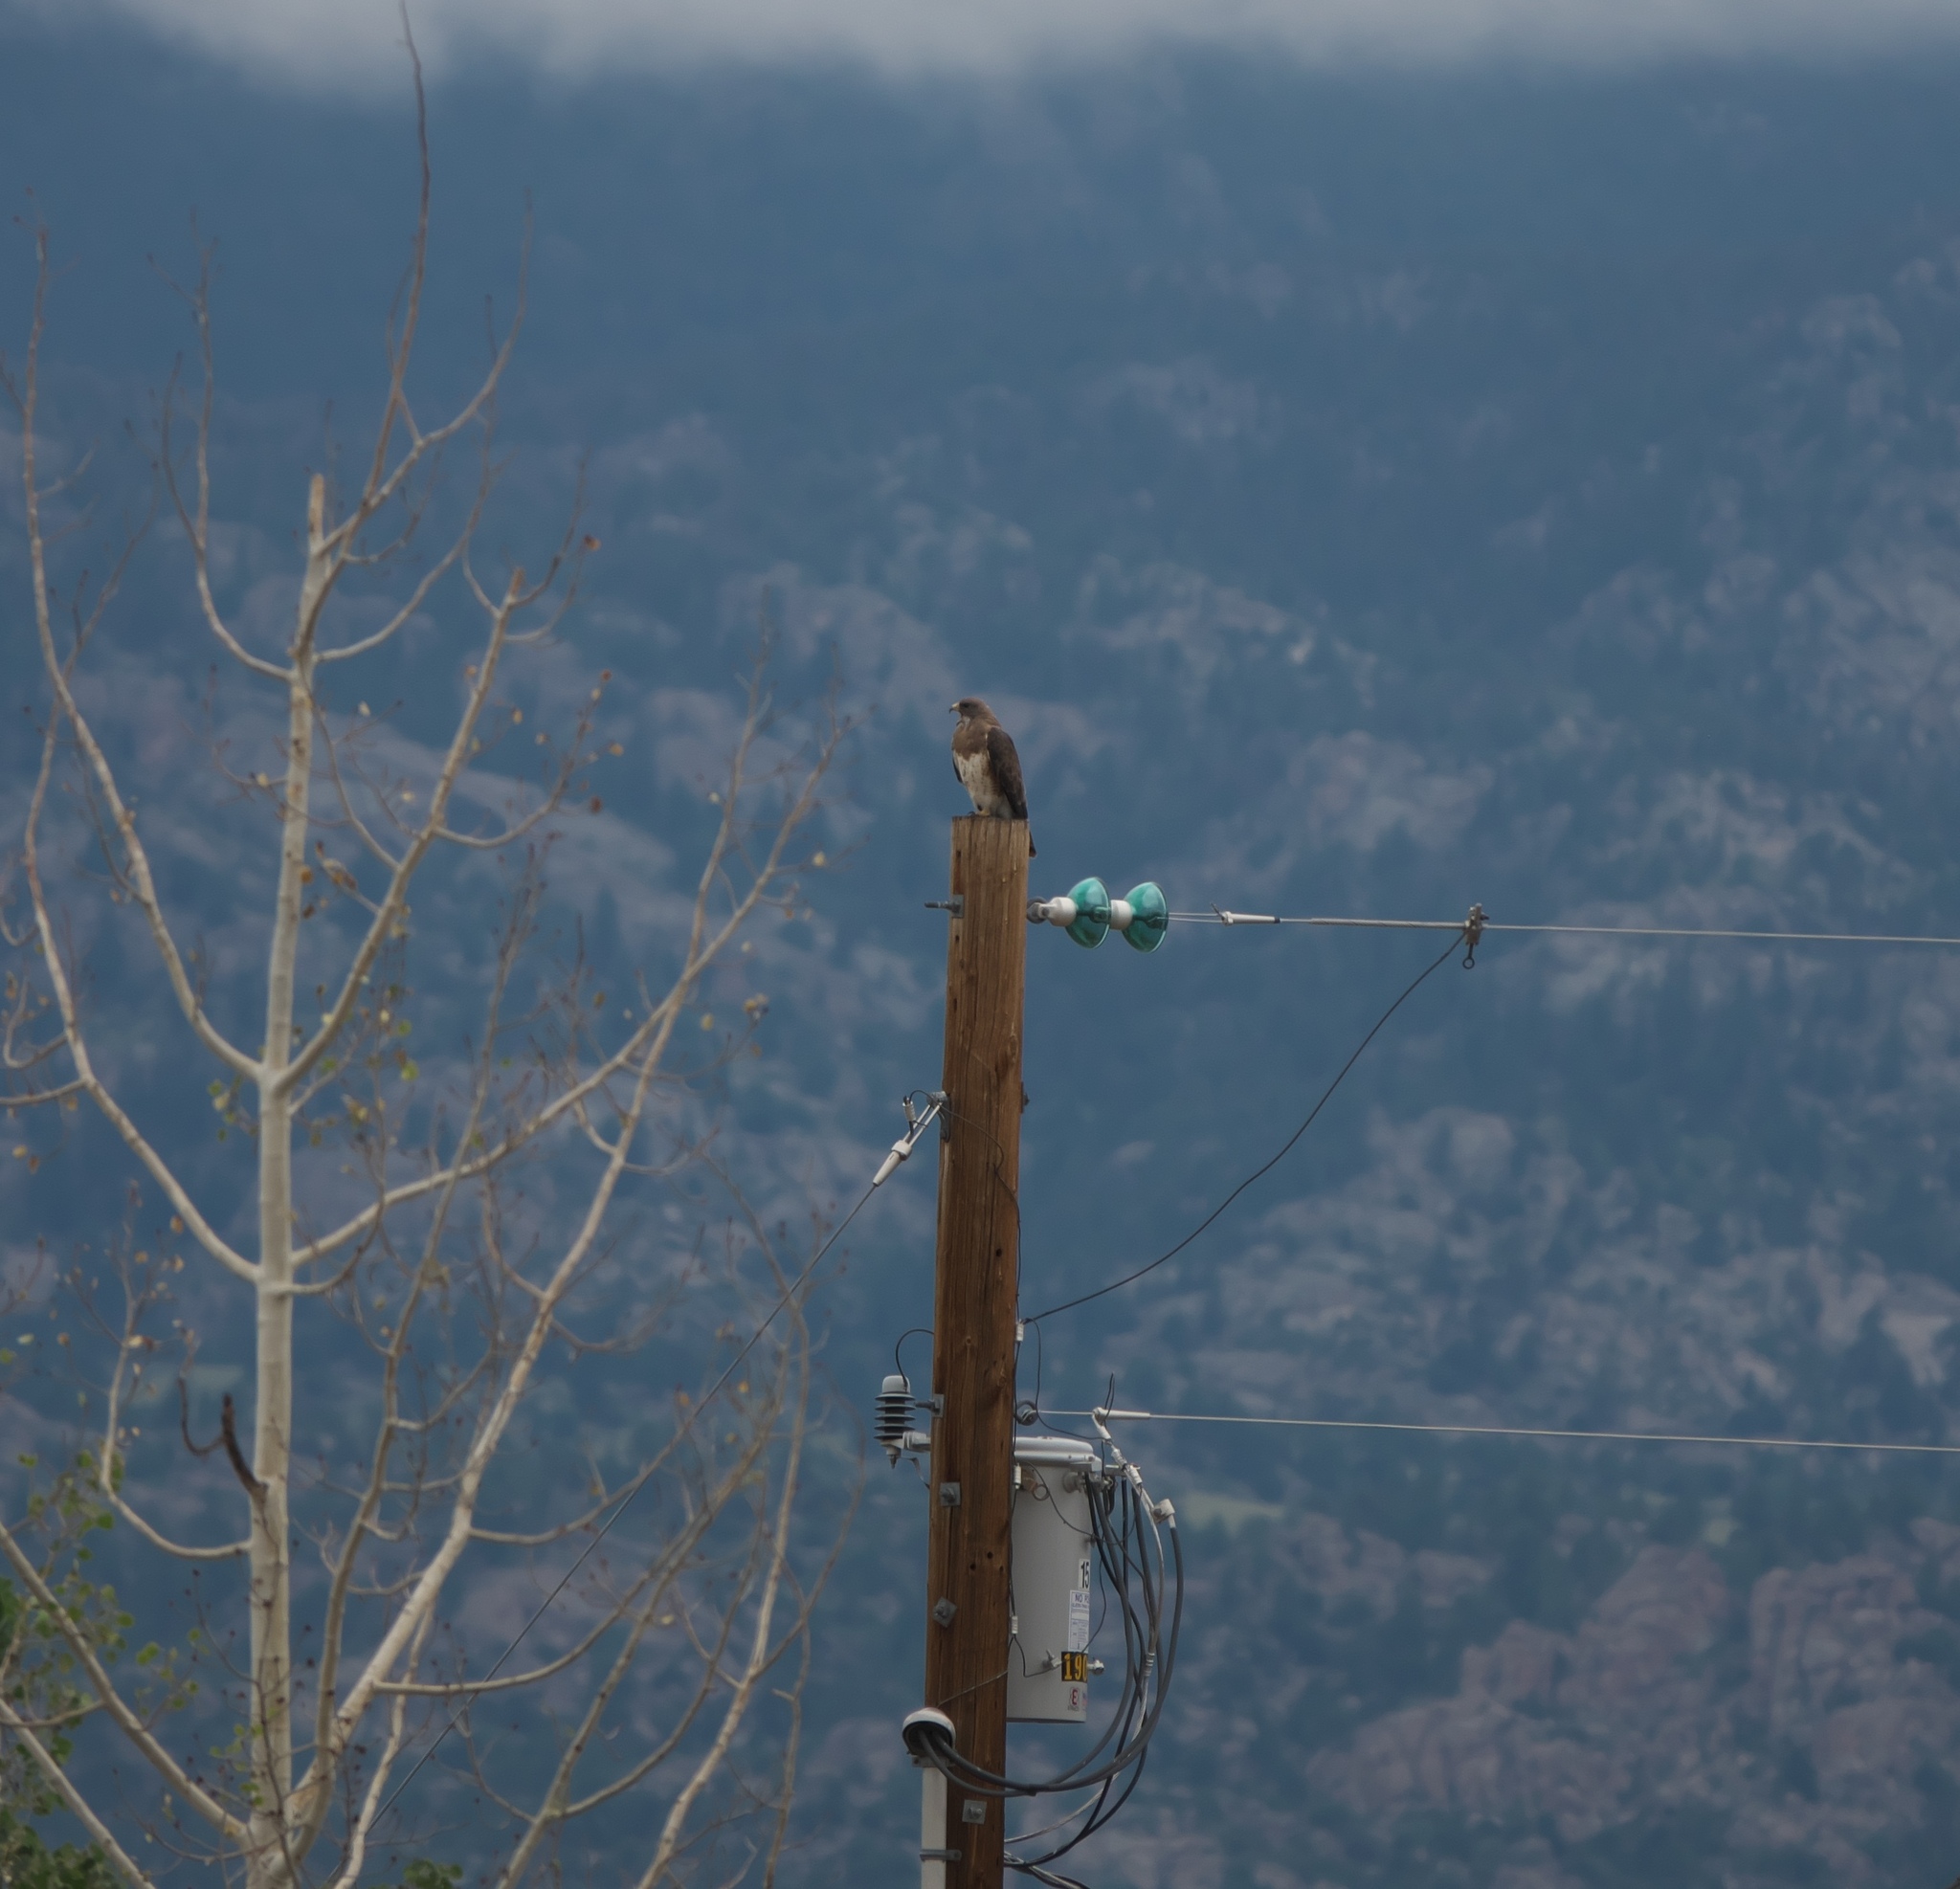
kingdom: Animalia
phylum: Chordata
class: Aves
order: Accipitriformes
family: Accipitridae
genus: Buteo
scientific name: Buteo swainsoni
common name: Swainson's hawk
